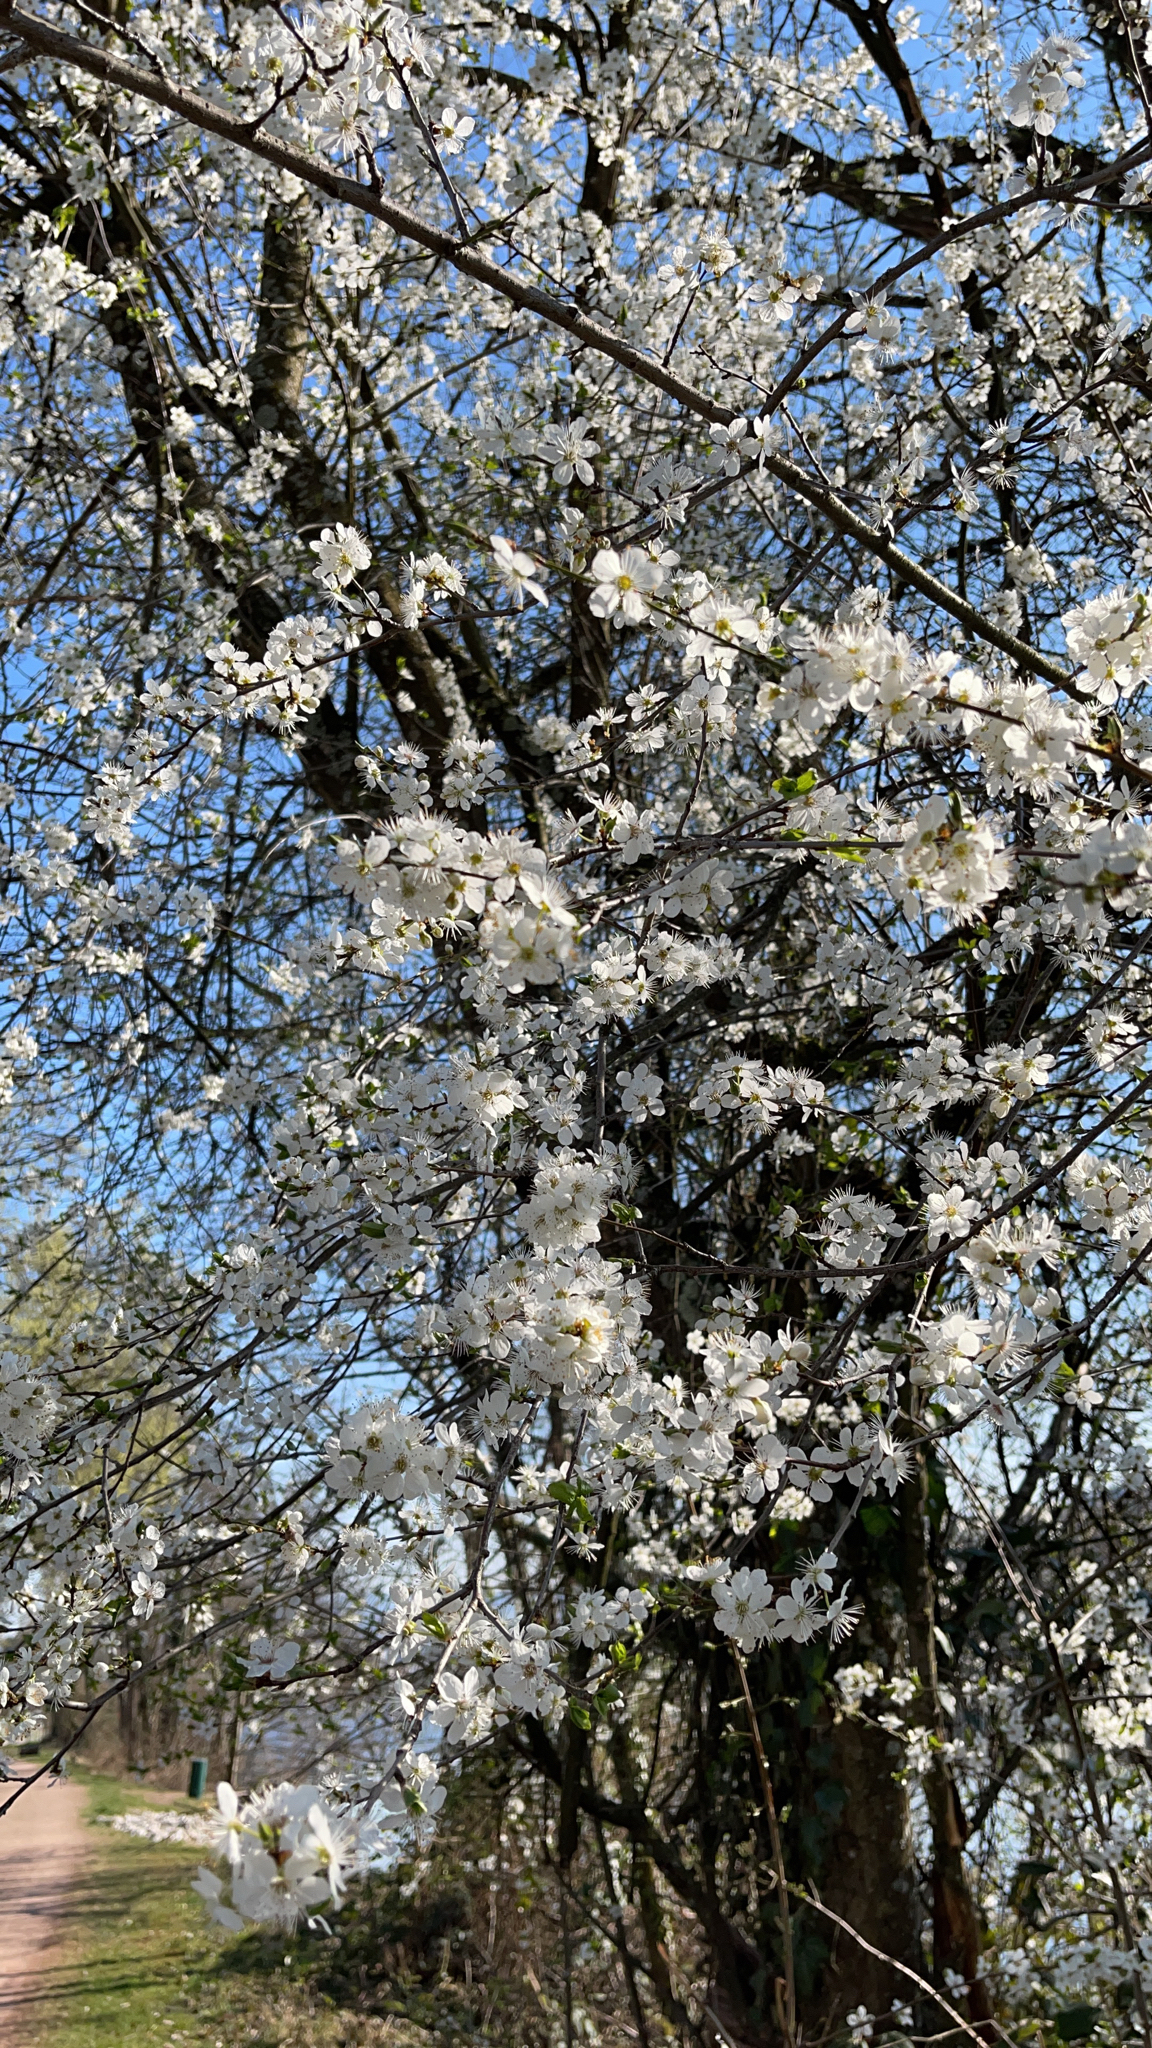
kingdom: Plantae
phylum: Tracheophyta
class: Magnoliopsida
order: Rosales
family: Rosaceae
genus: Prunus
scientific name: Prunus cerasifera
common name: Cherry plum
